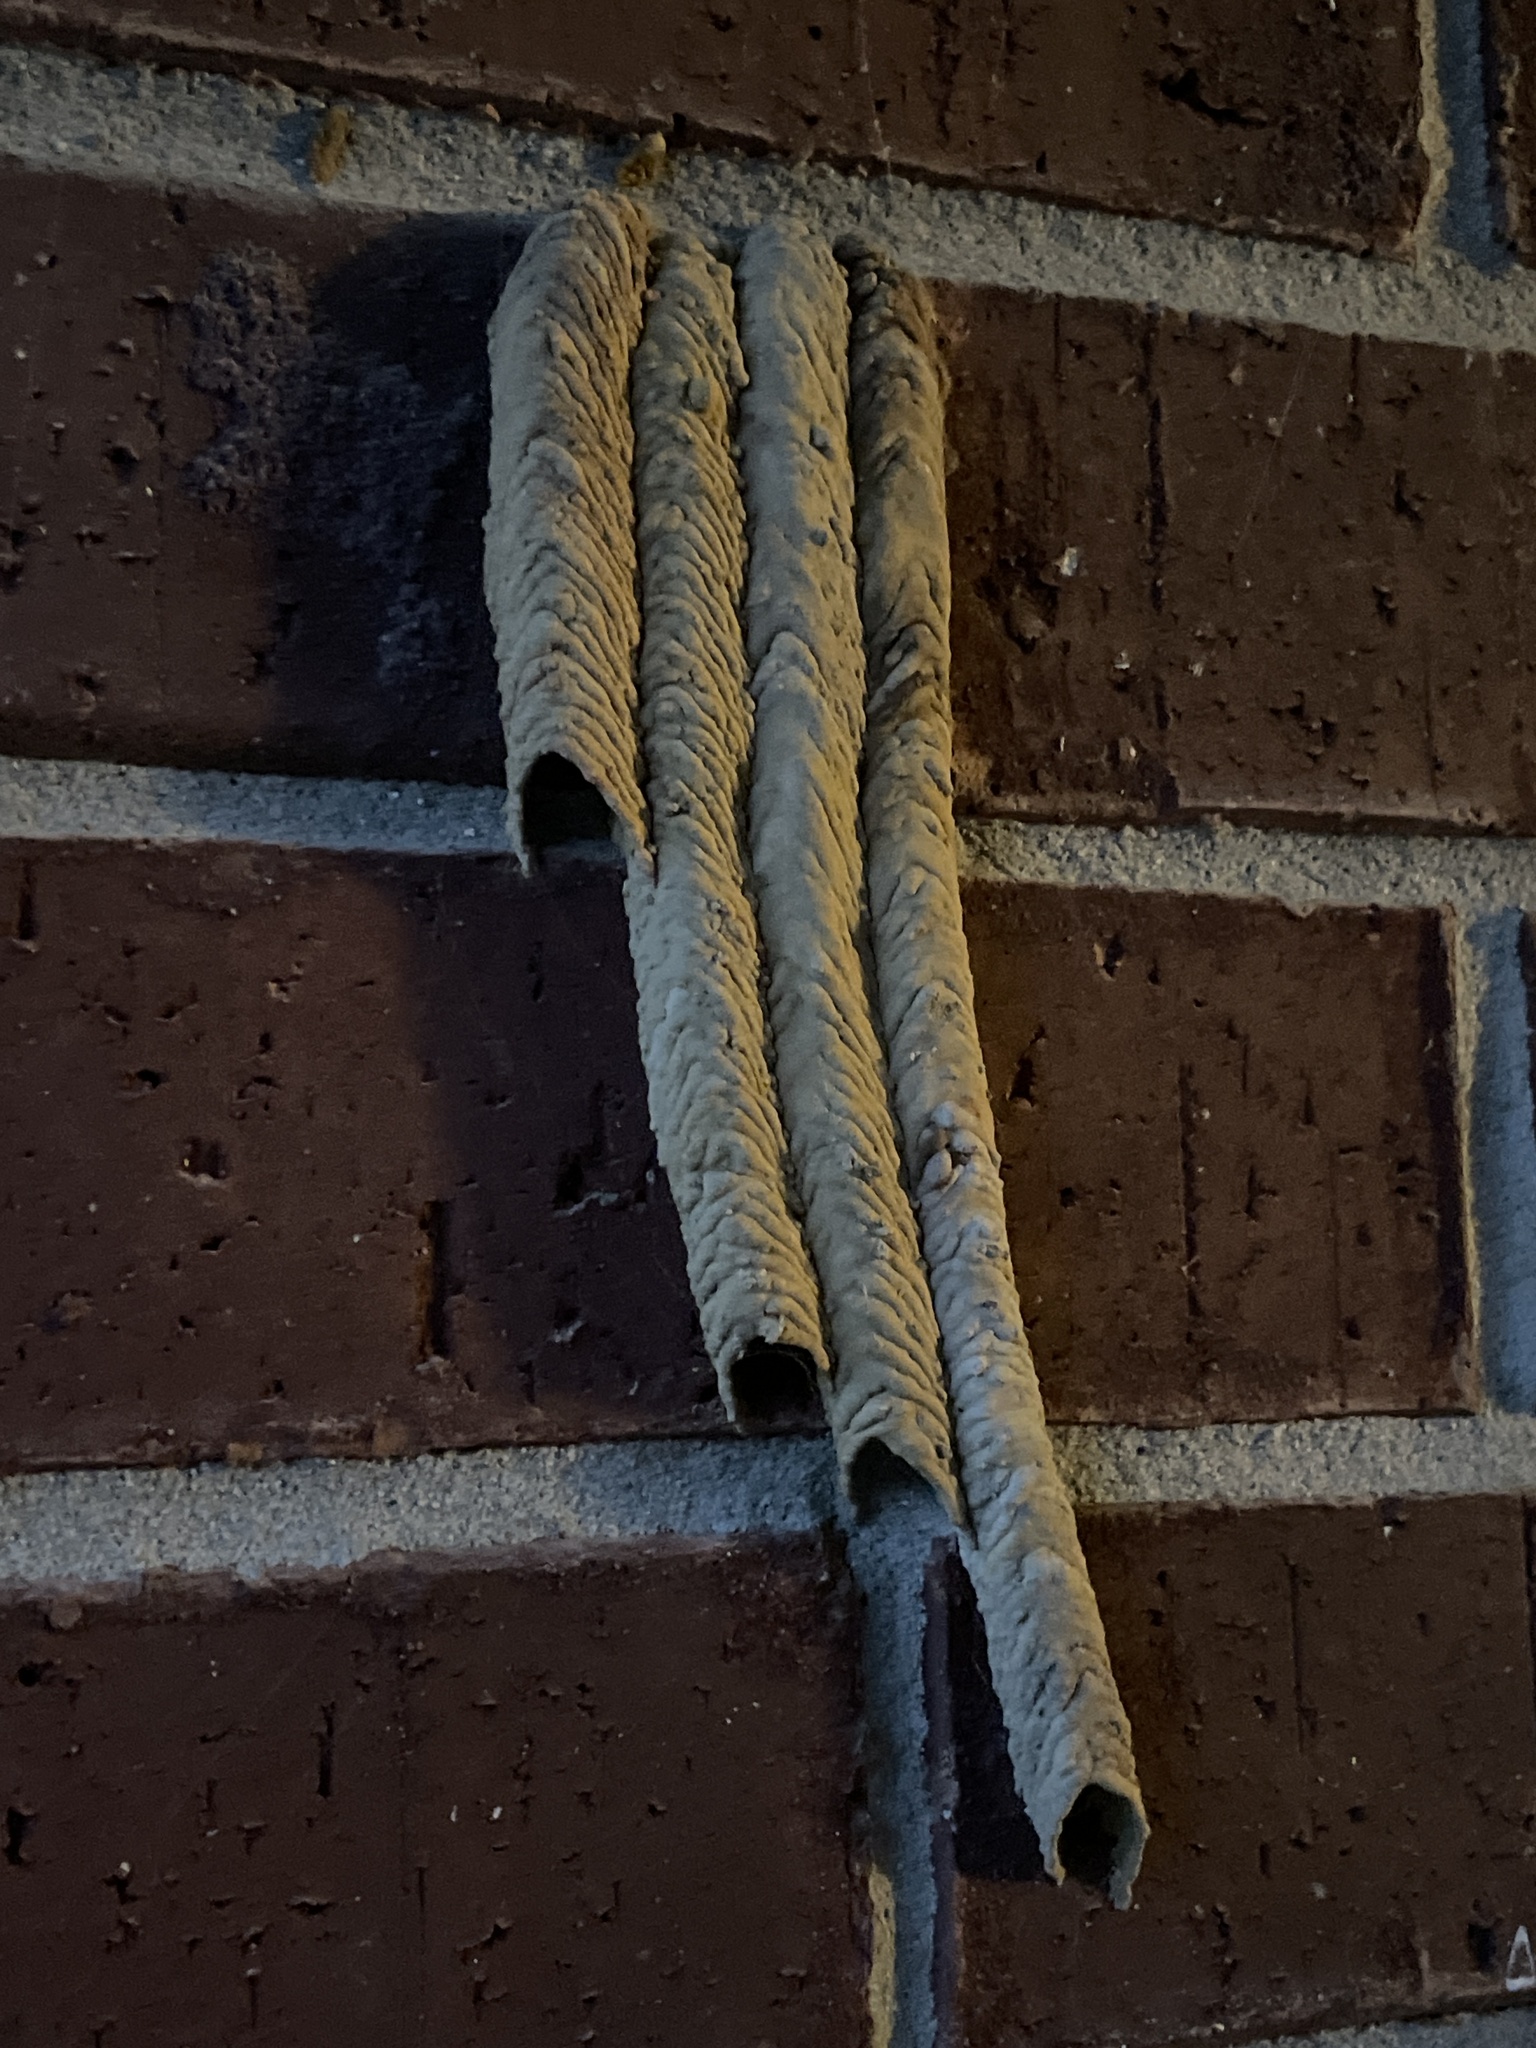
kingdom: Animalia
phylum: Arthropoda
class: Insecta
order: Hymenoptera
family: Crabronidae
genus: Trypoxylon
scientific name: Trypoxylon politum
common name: Organ-pipe mud-dauber wasp
